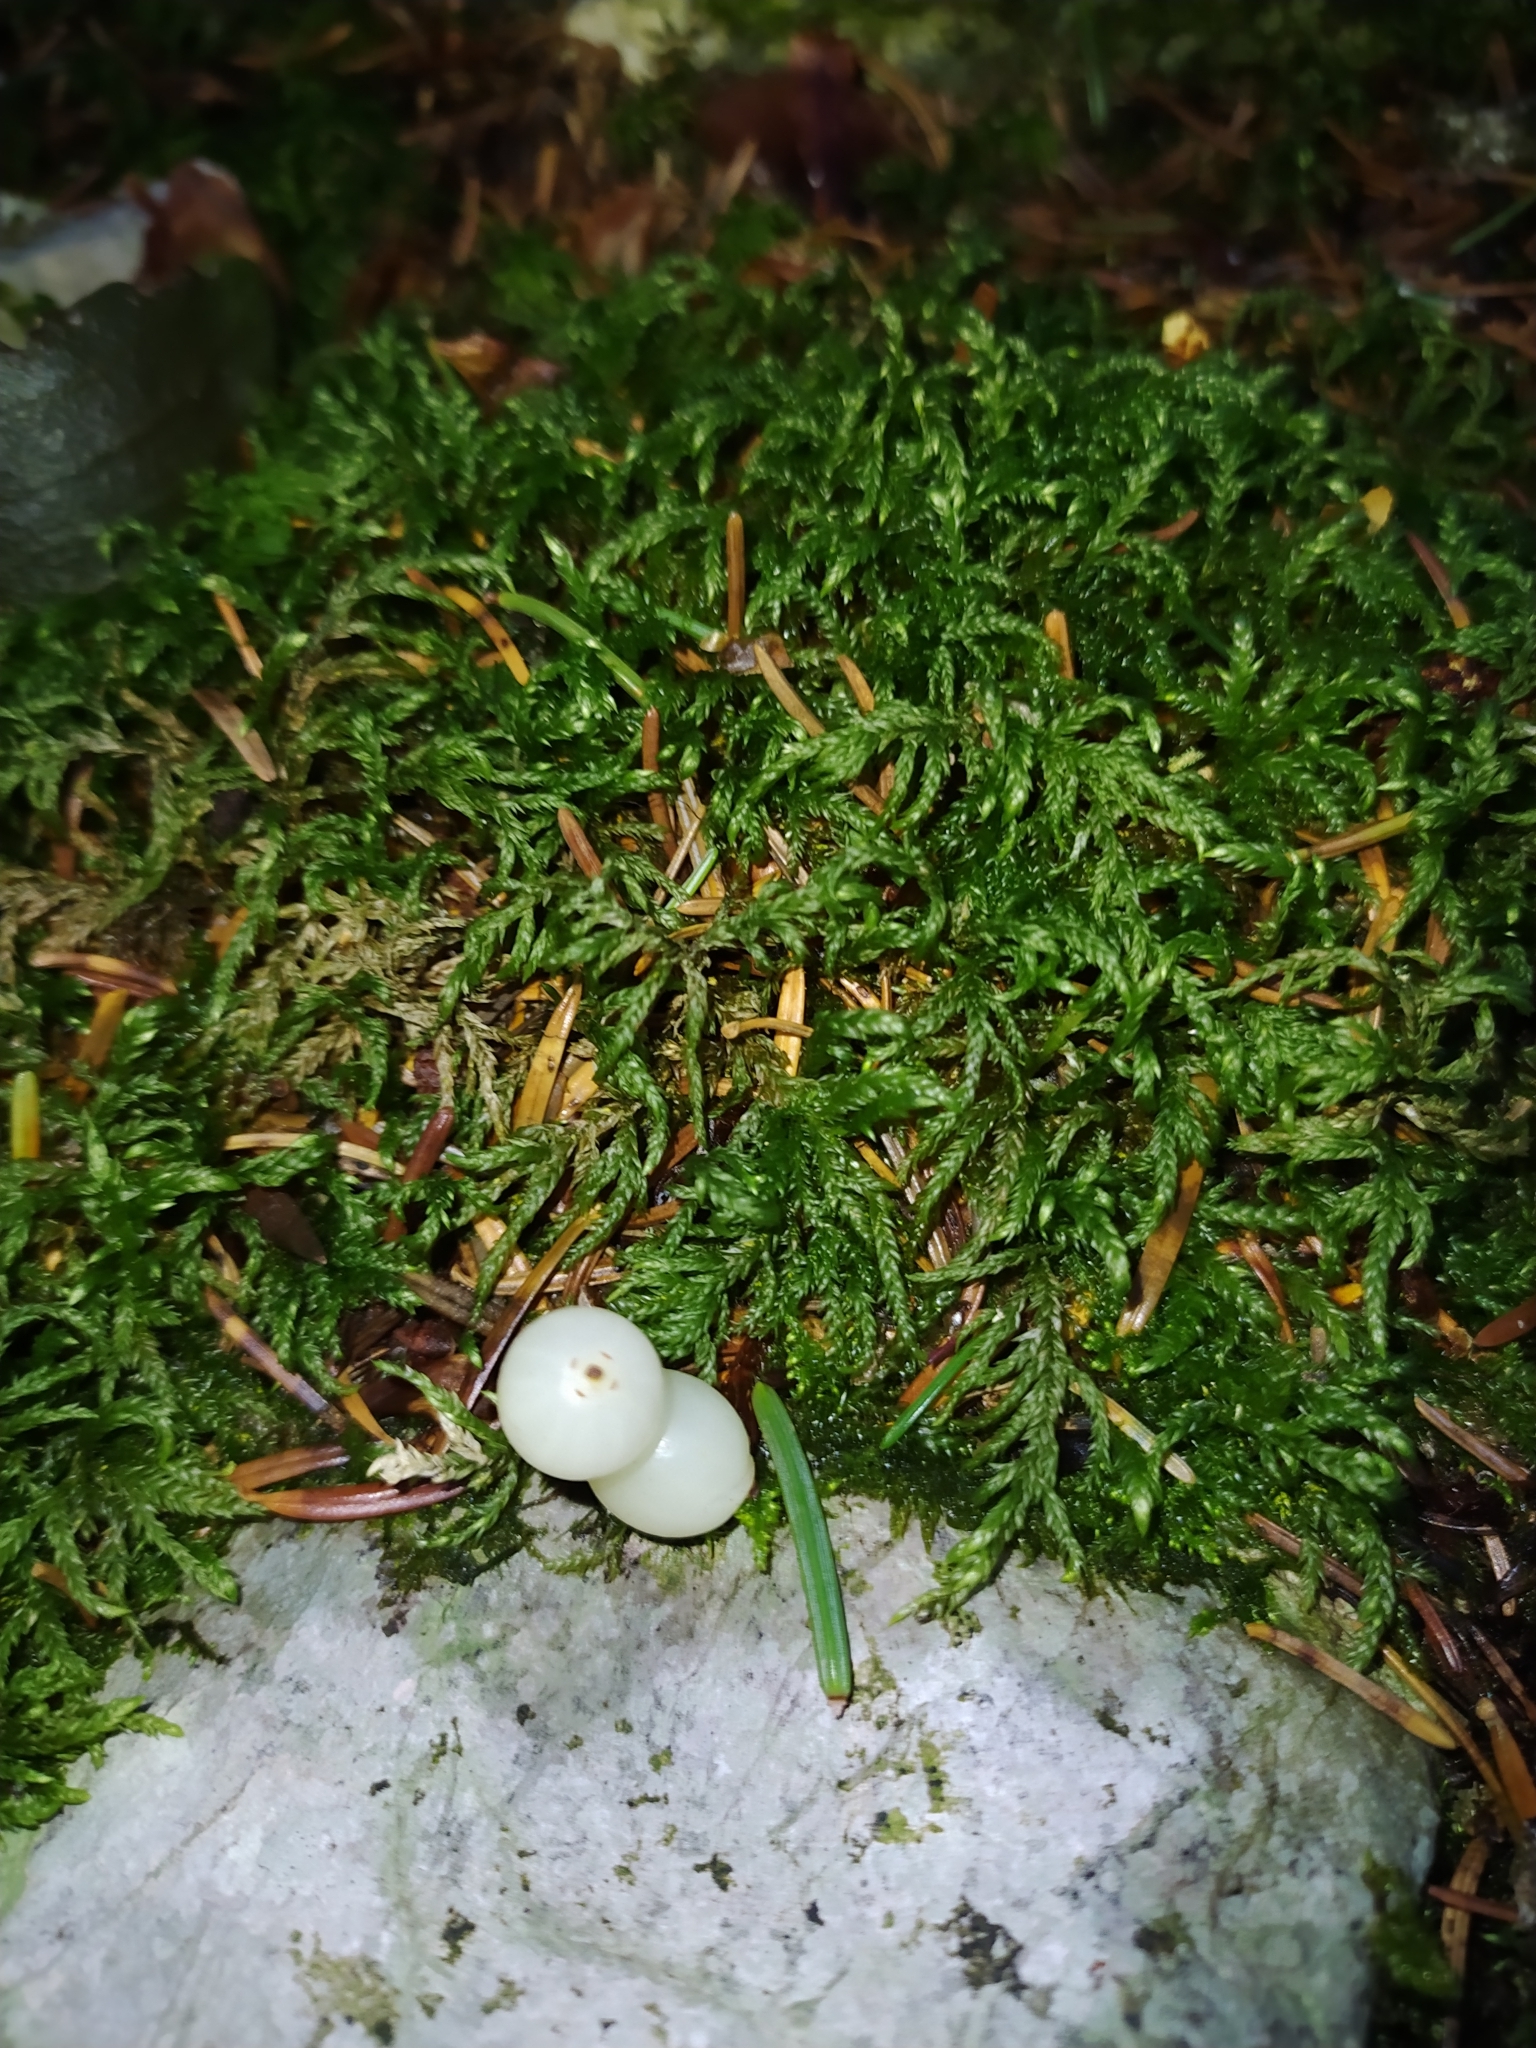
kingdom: Plantae
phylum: Tracheophyta
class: Magnoliopsida
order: Santalales
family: Viscaceae
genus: Viscum
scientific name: Viscum album
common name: Mistletoe
